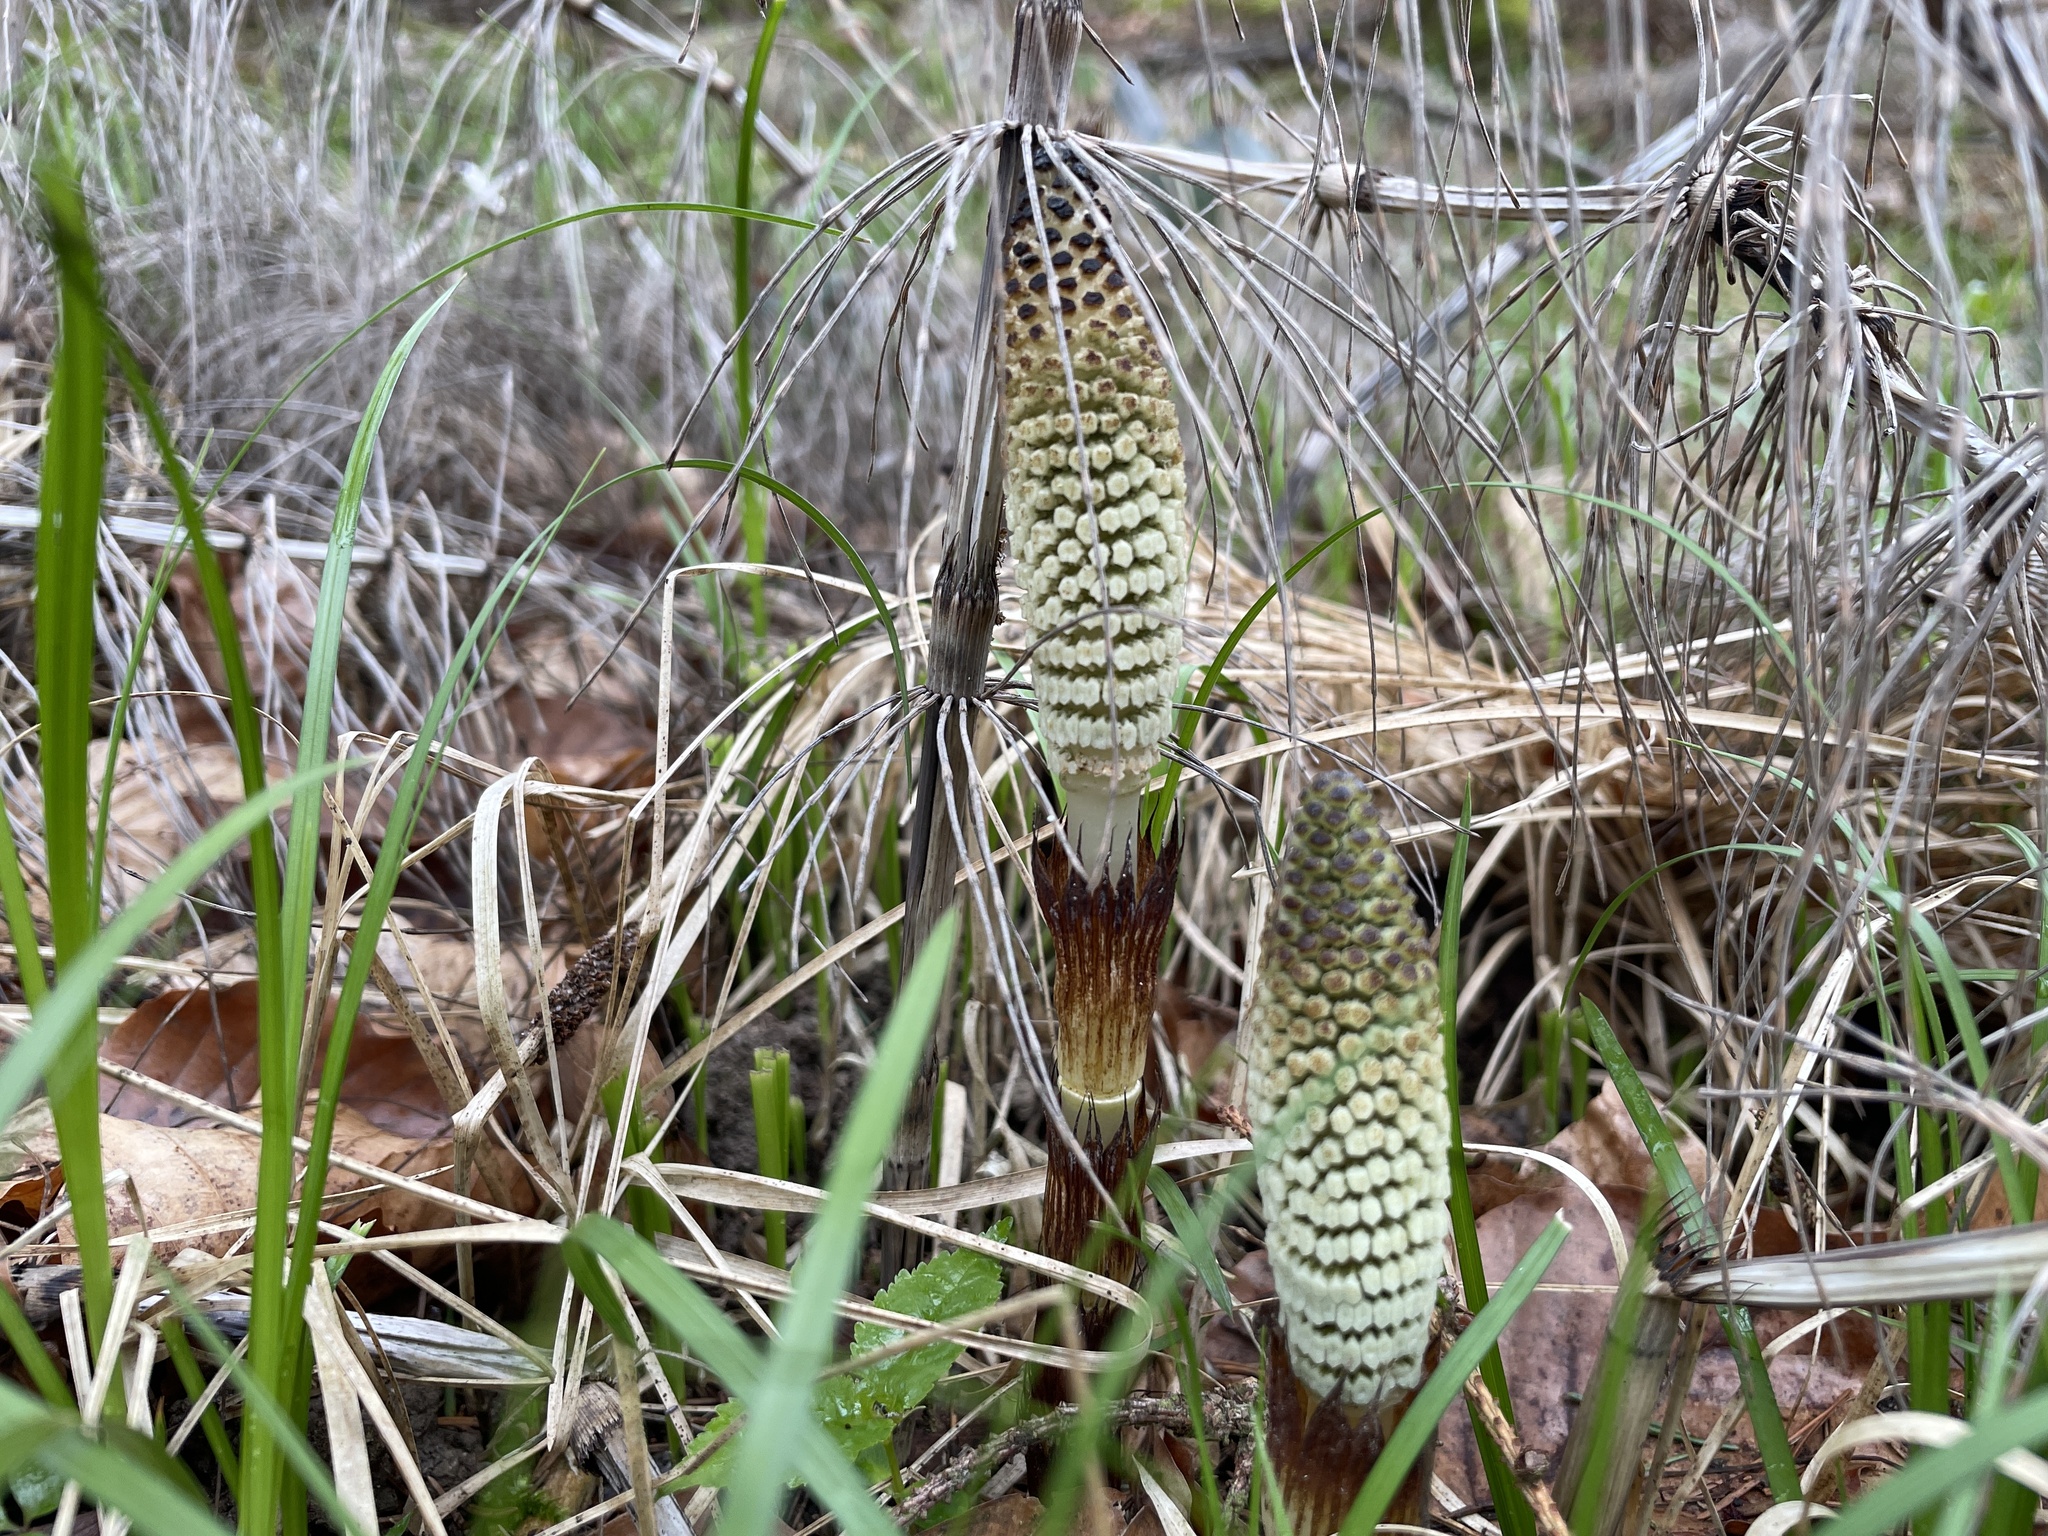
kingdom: Plantae
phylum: Tracheophyta
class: Polypodiopsida
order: Equisetales
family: Equisetaceae
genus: Equisetum
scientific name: Equisetum telmateia
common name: Great horsetail
